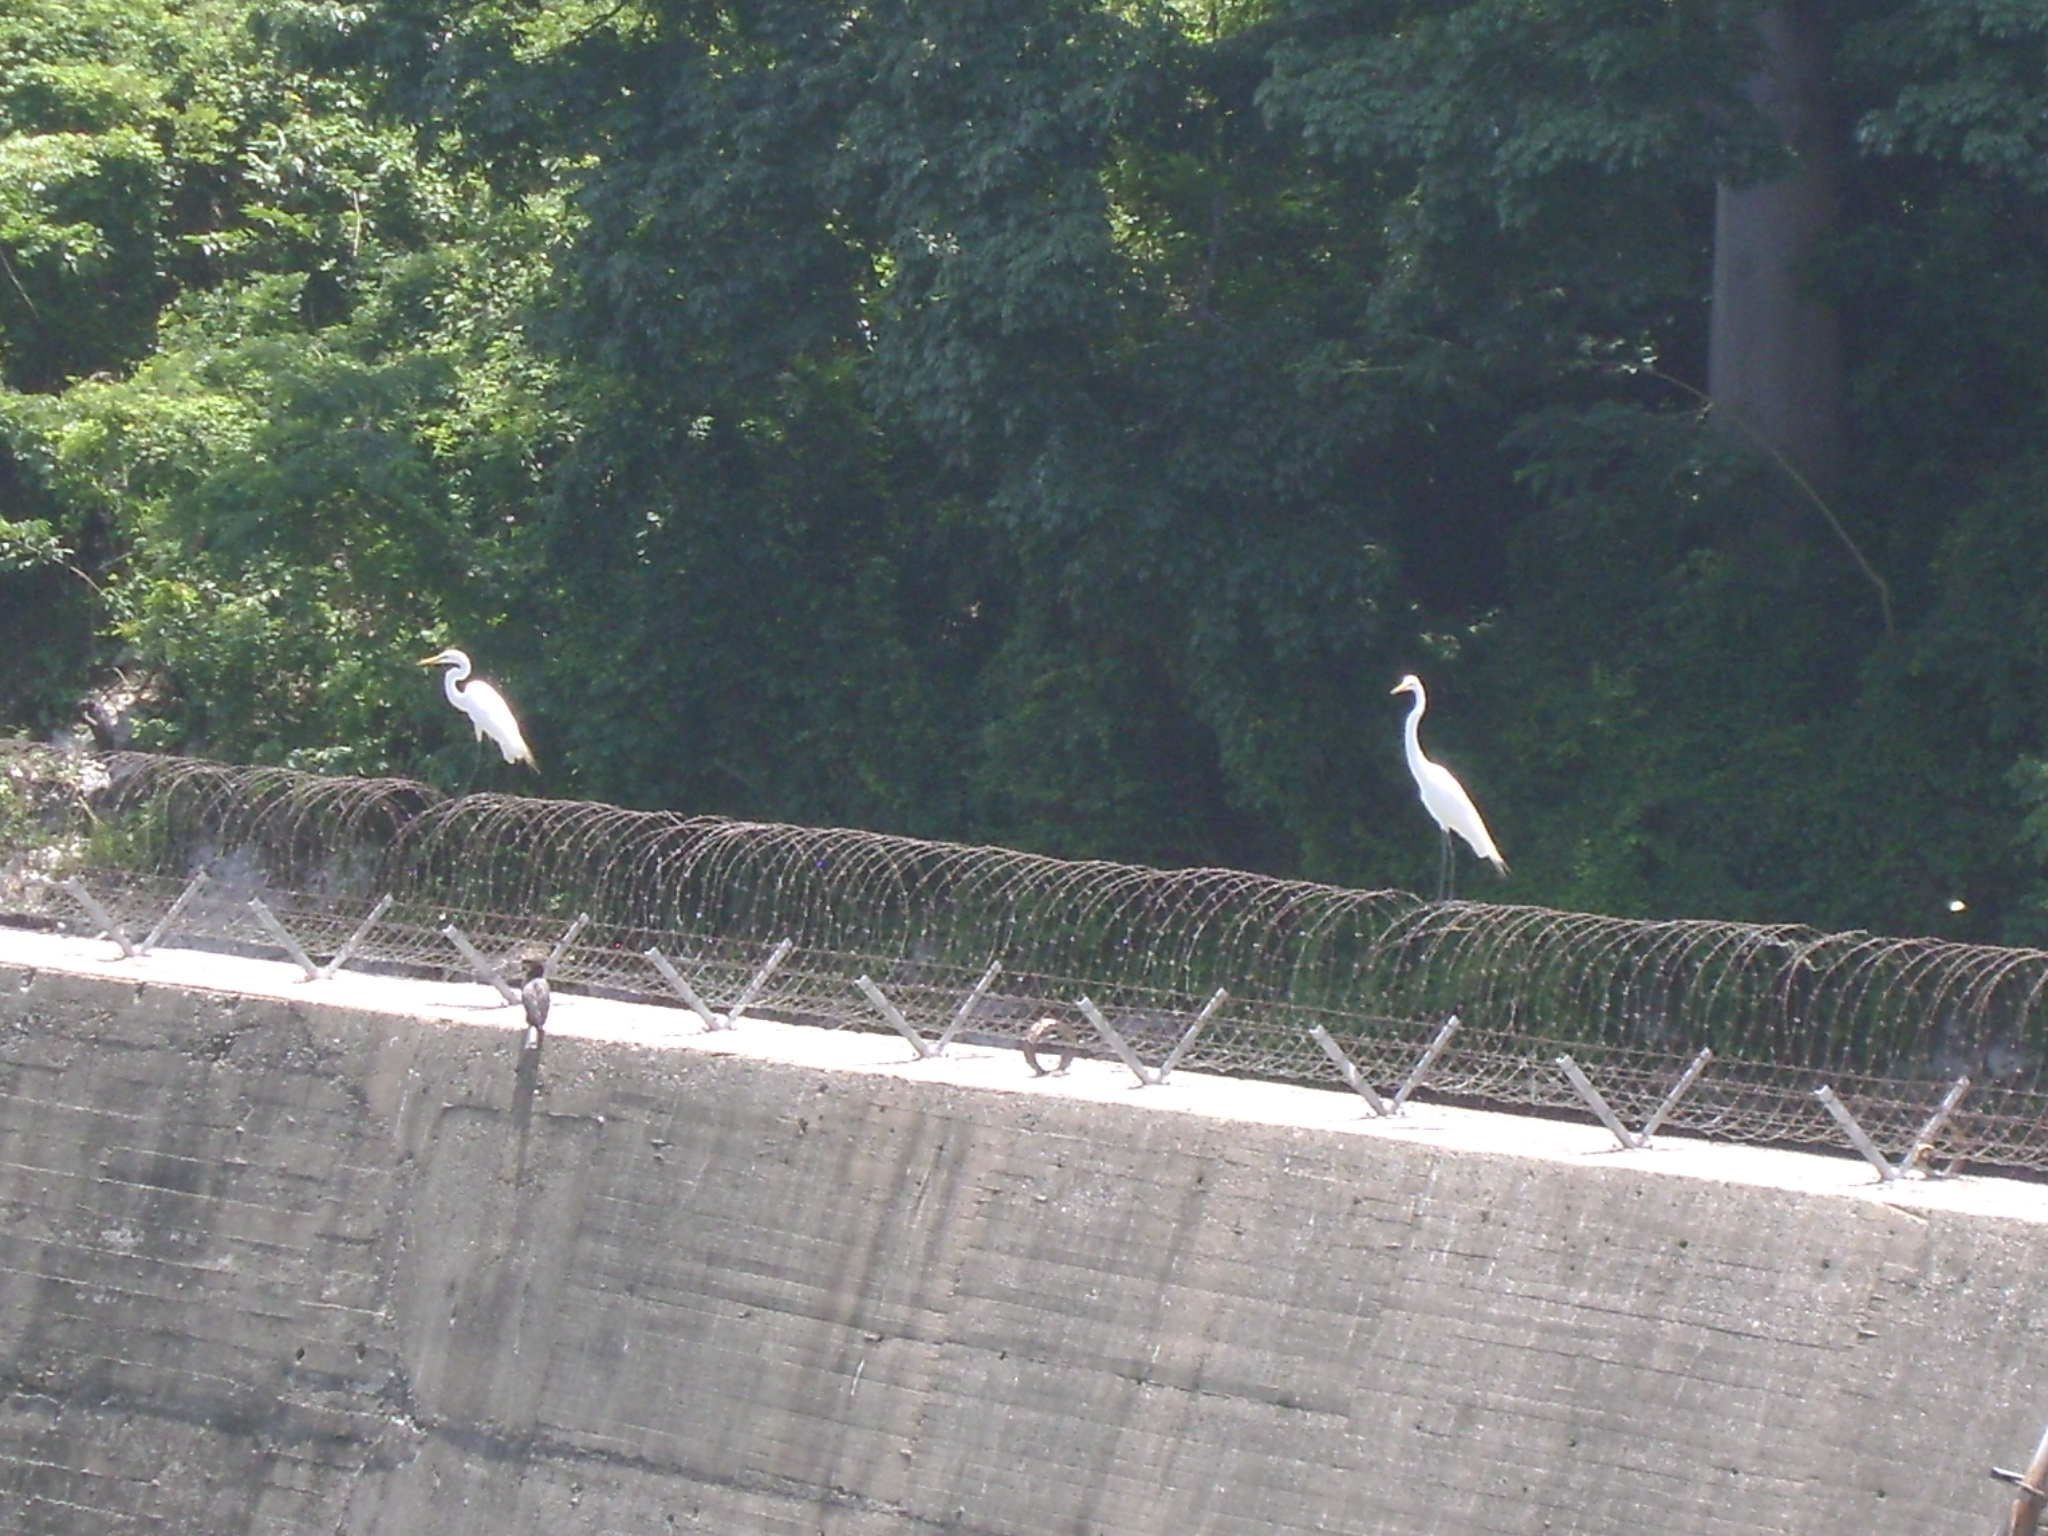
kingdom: Animalia
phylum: Chordata
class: Aves
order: Pelecaniformes
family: Ardeidae
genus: Ardea
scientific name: Ardea alba
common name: Great egret
